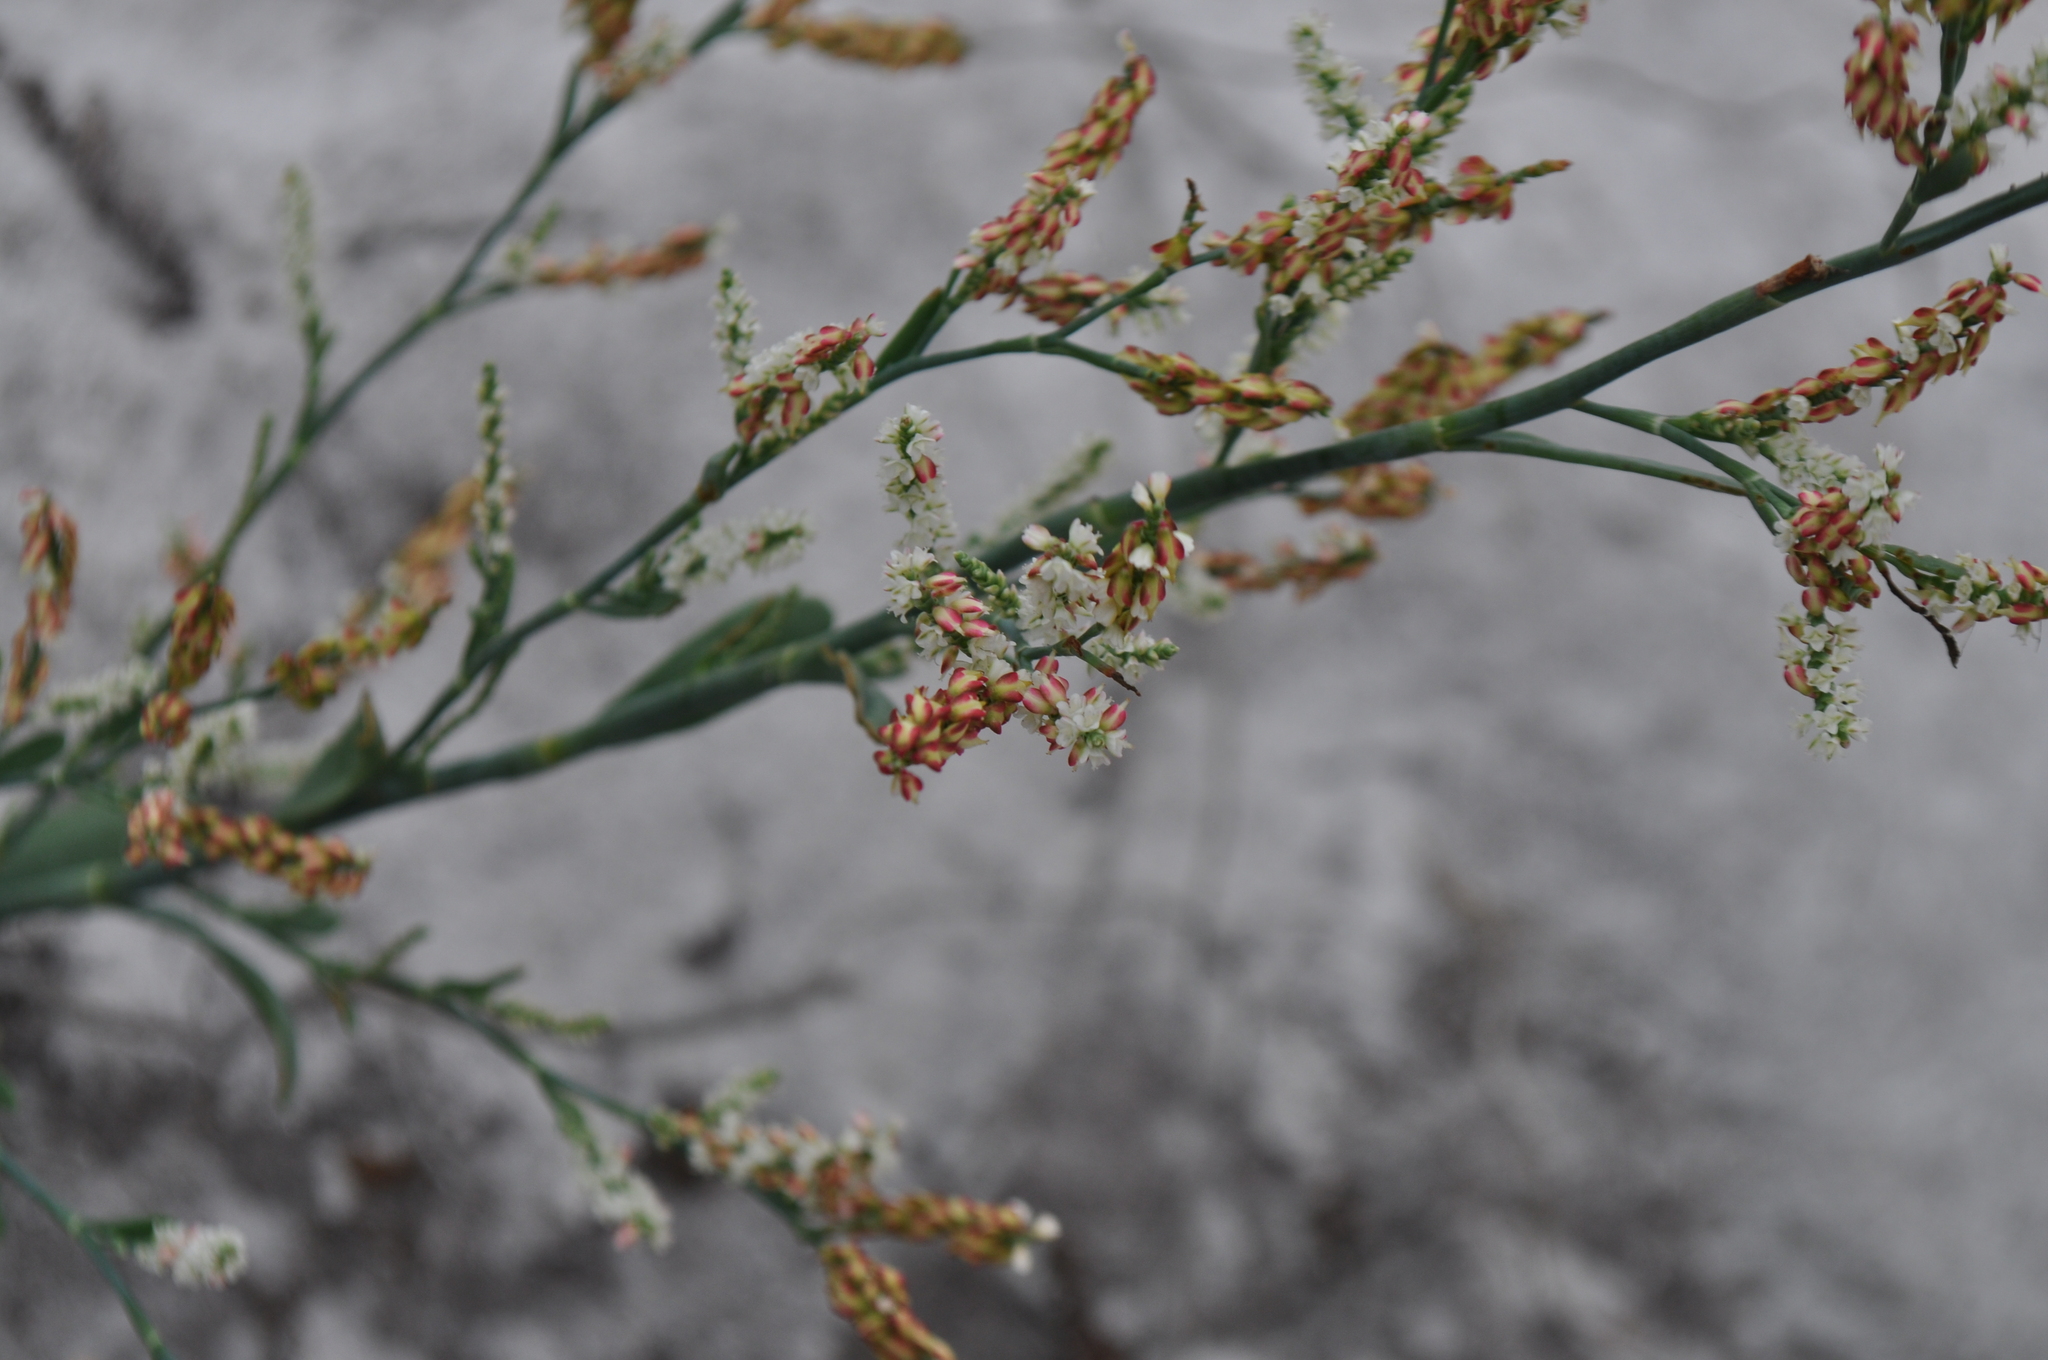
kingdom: Plantae
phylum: Tracheophyta
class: Magnoliopsida
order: Caryophyllales
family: Polygonaceae
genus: Polygonella
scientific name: Polygonella gracilis
